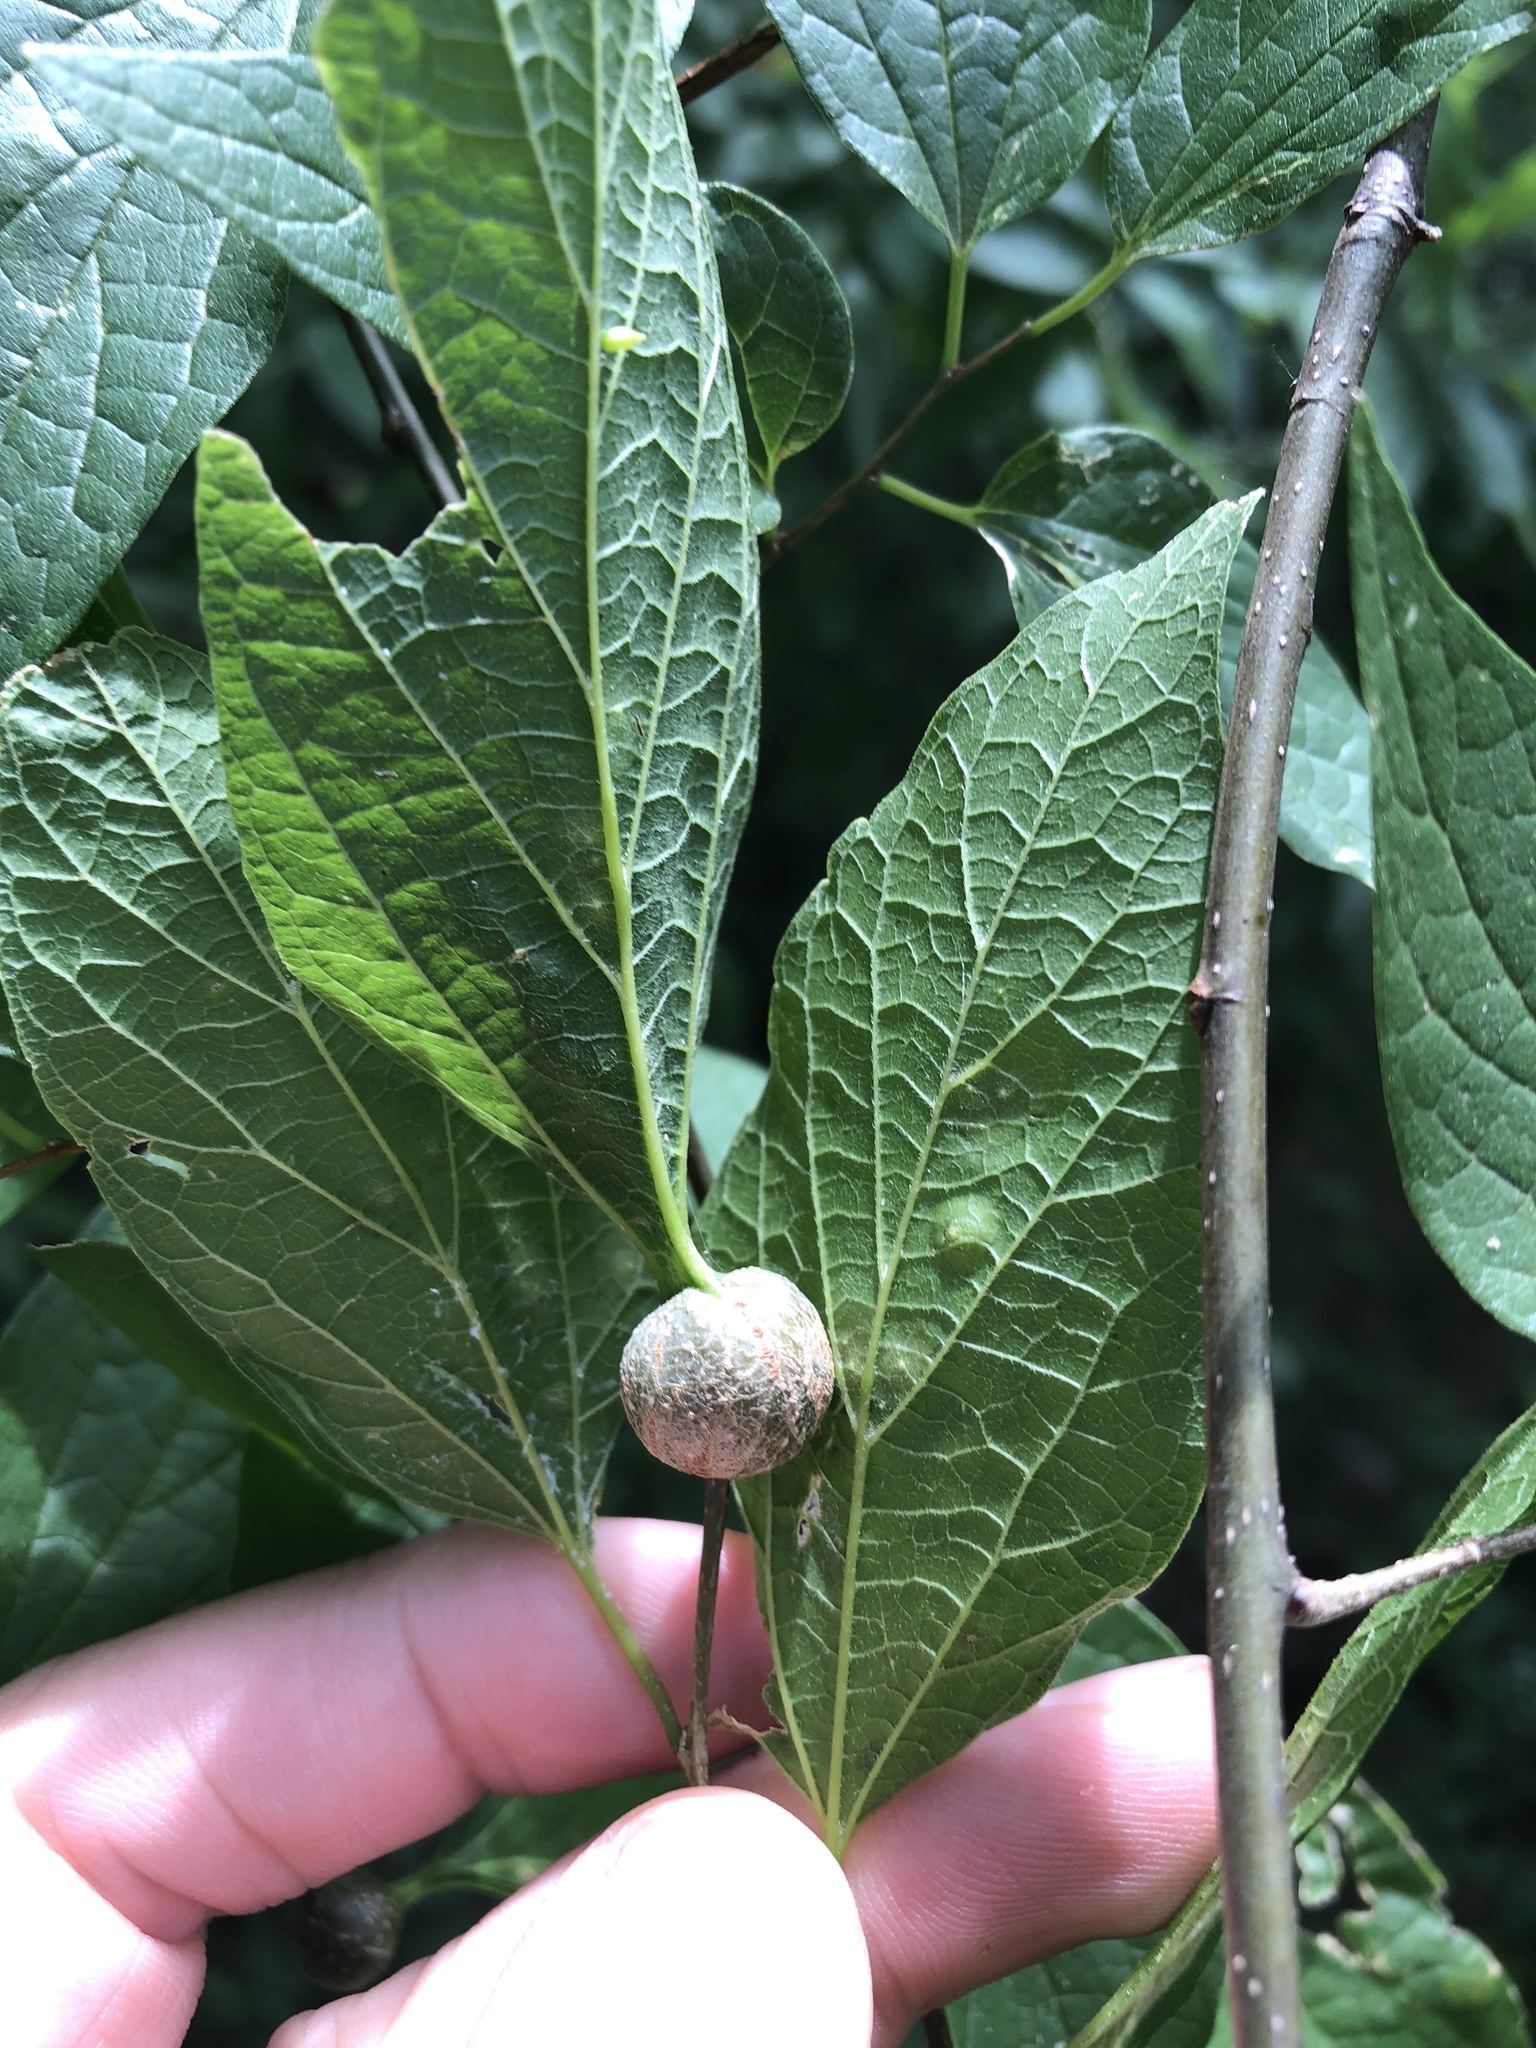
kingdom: Animalia
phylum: Arthropoda
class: Insecta
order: Hemiptera
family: Aphalaridae
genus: Pachypsylla
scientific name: Pachypsylla venusta
